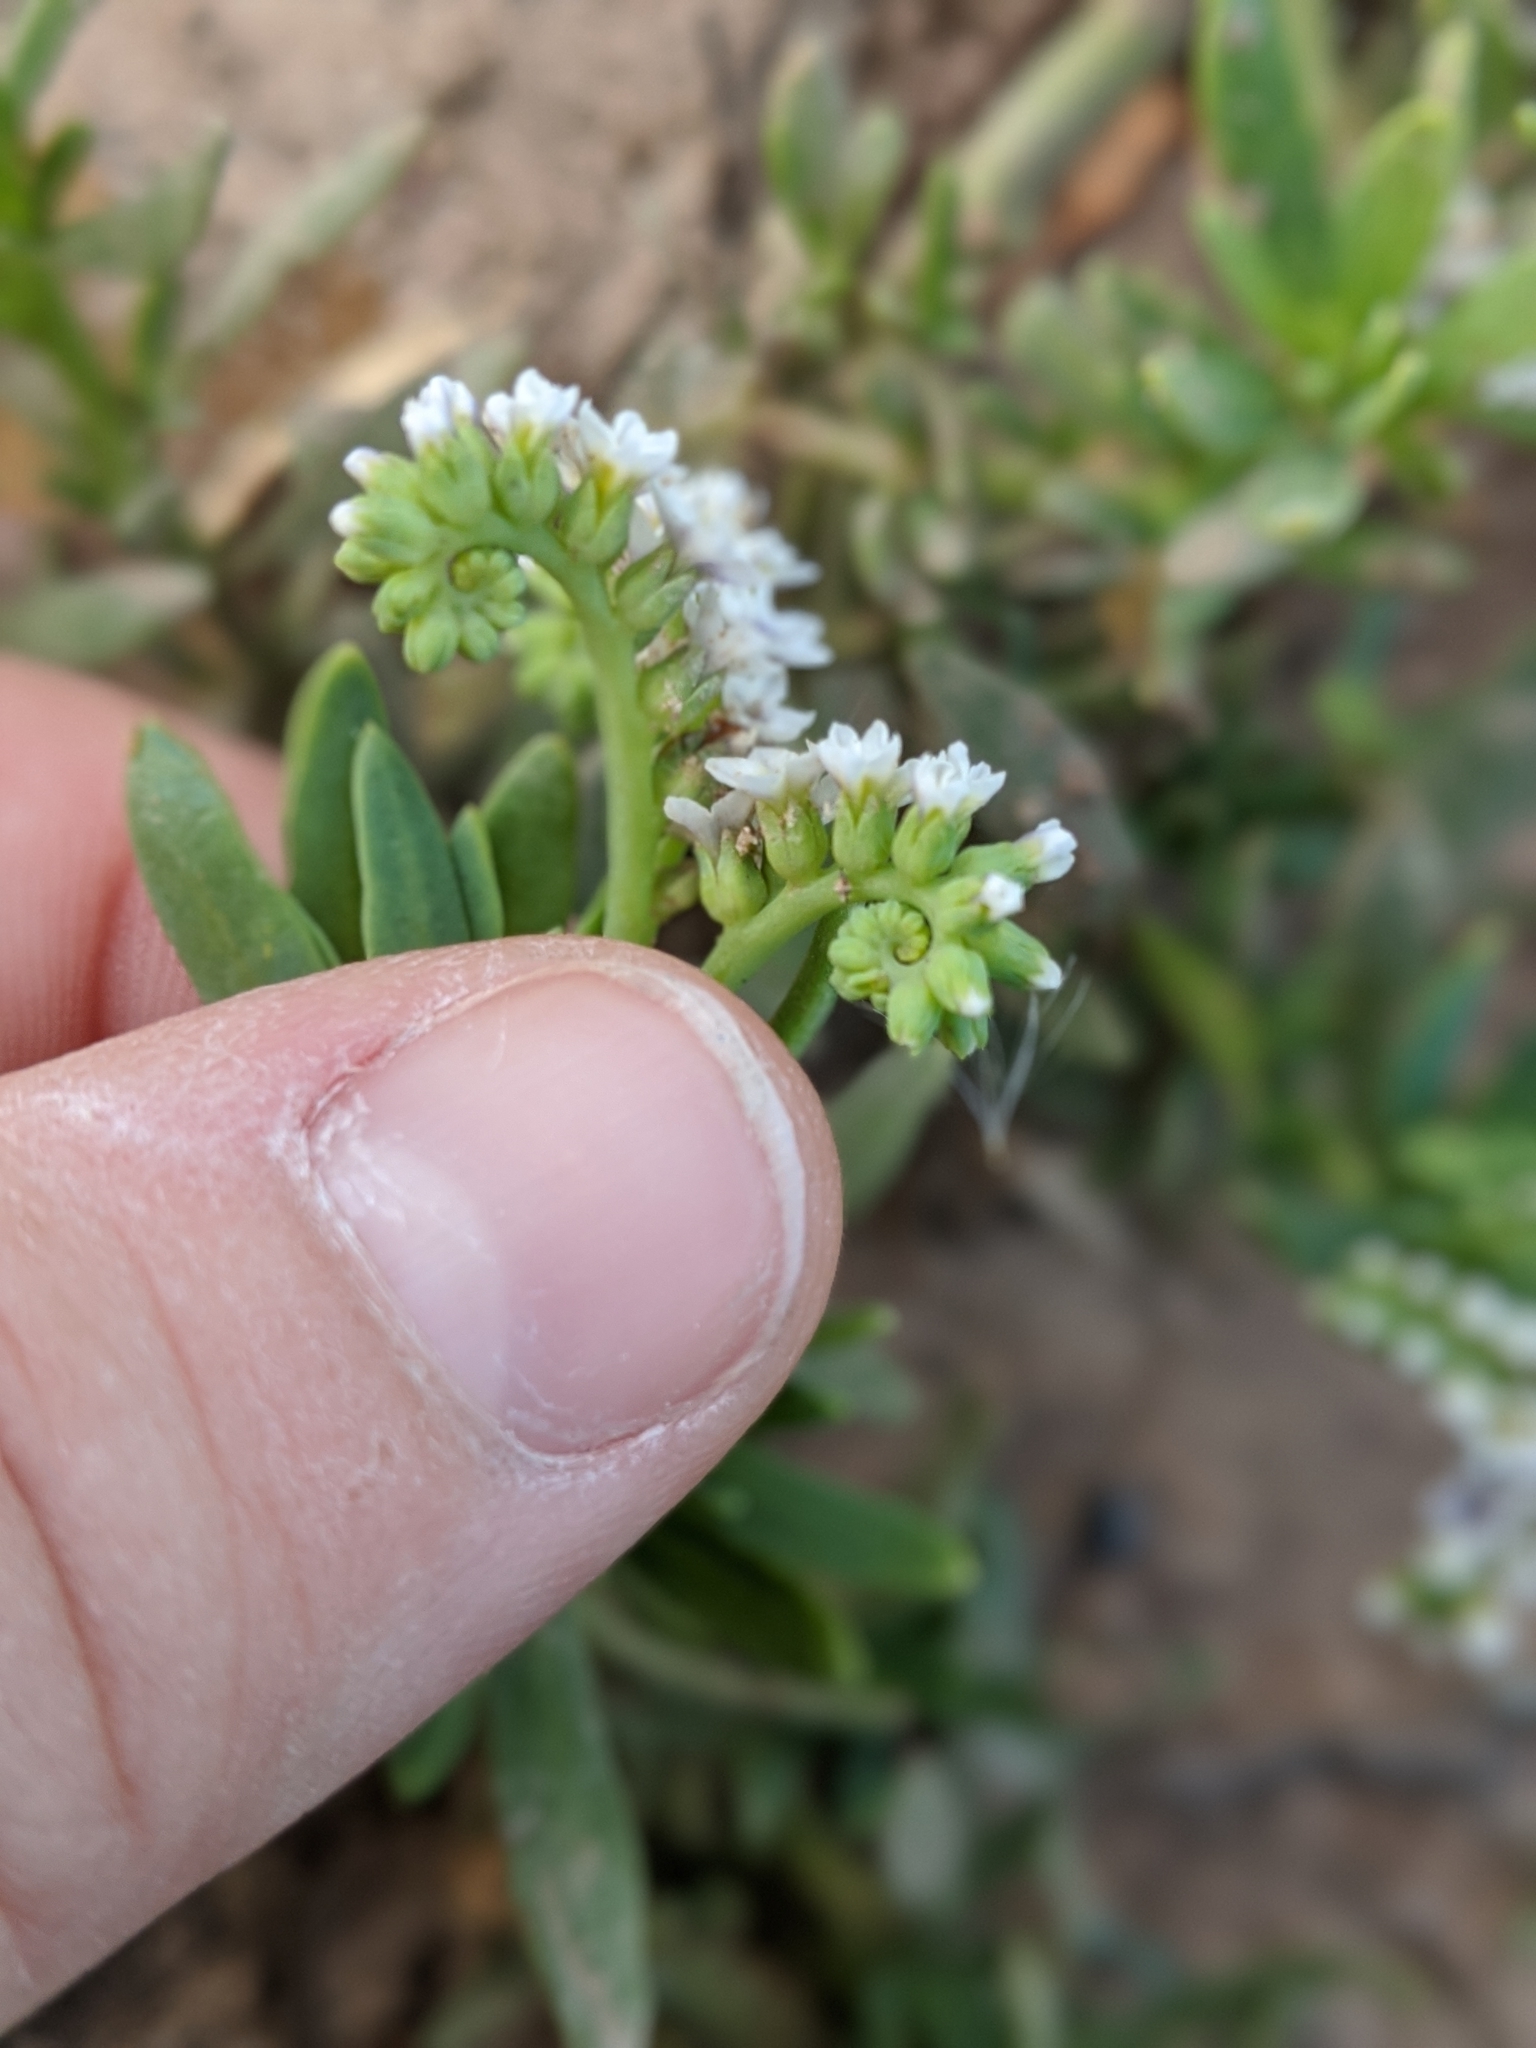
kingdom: Plantae
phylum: Tracheophyta
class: Magnoliopsida
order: Boraginales
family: Heliotropiaceae
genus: Heliotropium
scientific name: Heliotropium curassavicum
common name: Seaside heliotrope
